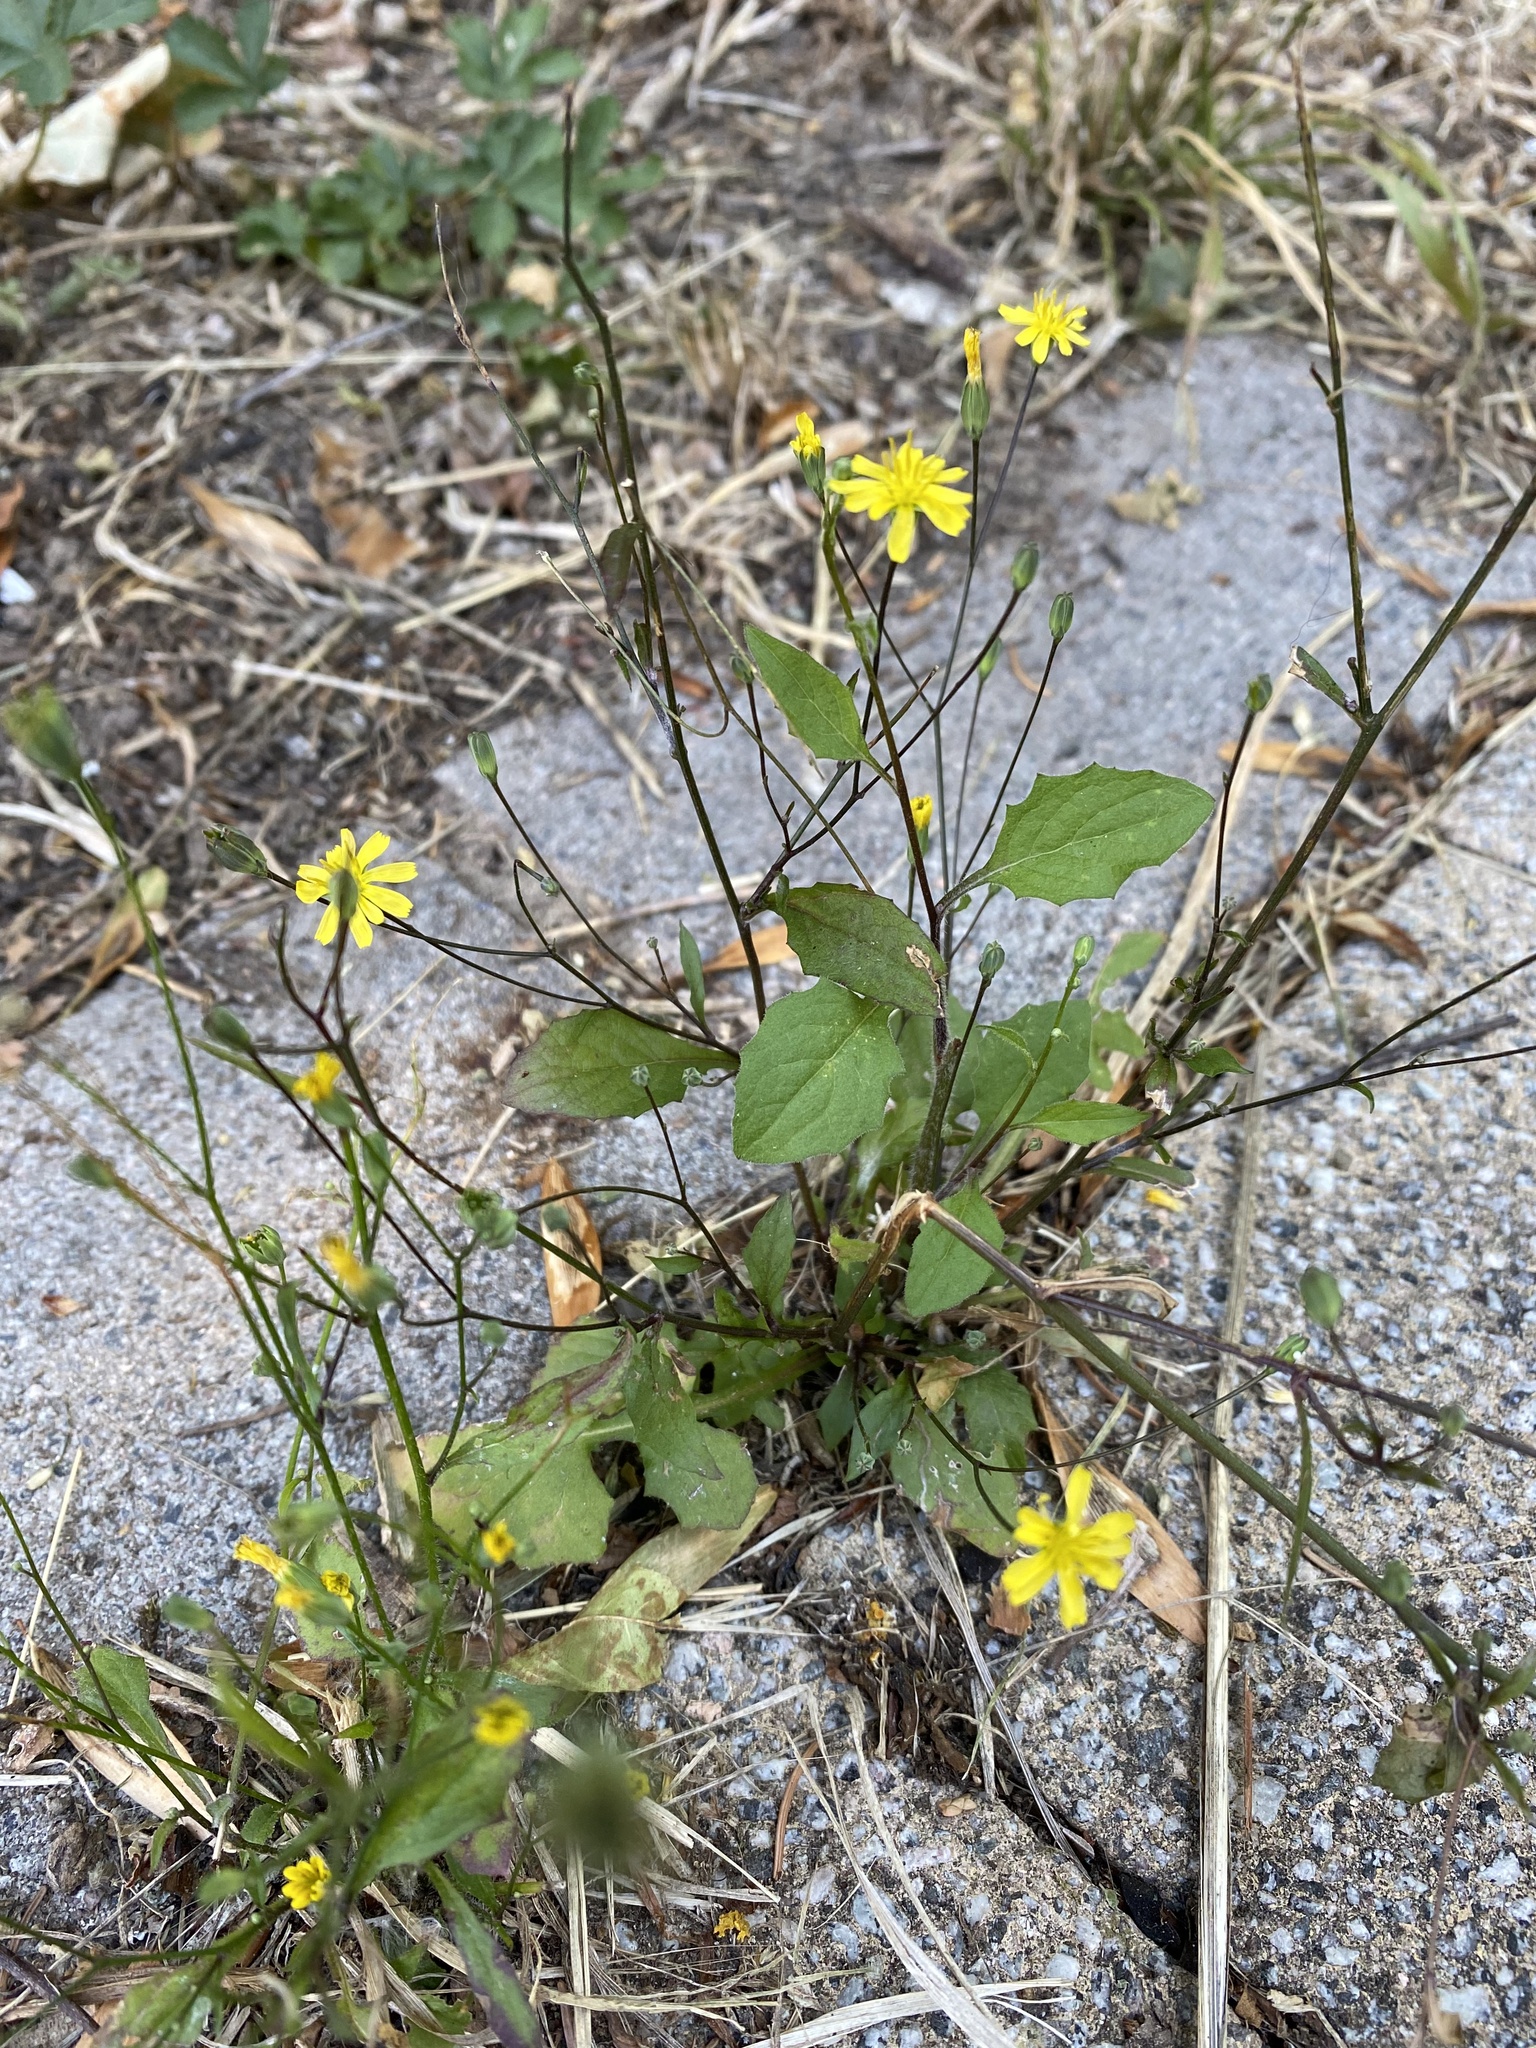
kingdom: Plantae
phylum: Tracheophyta
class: Magnoliopsida
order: Asterales
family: Asteraceae
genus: Lapsana
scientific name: Lapsana communis
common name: Nipplewort
